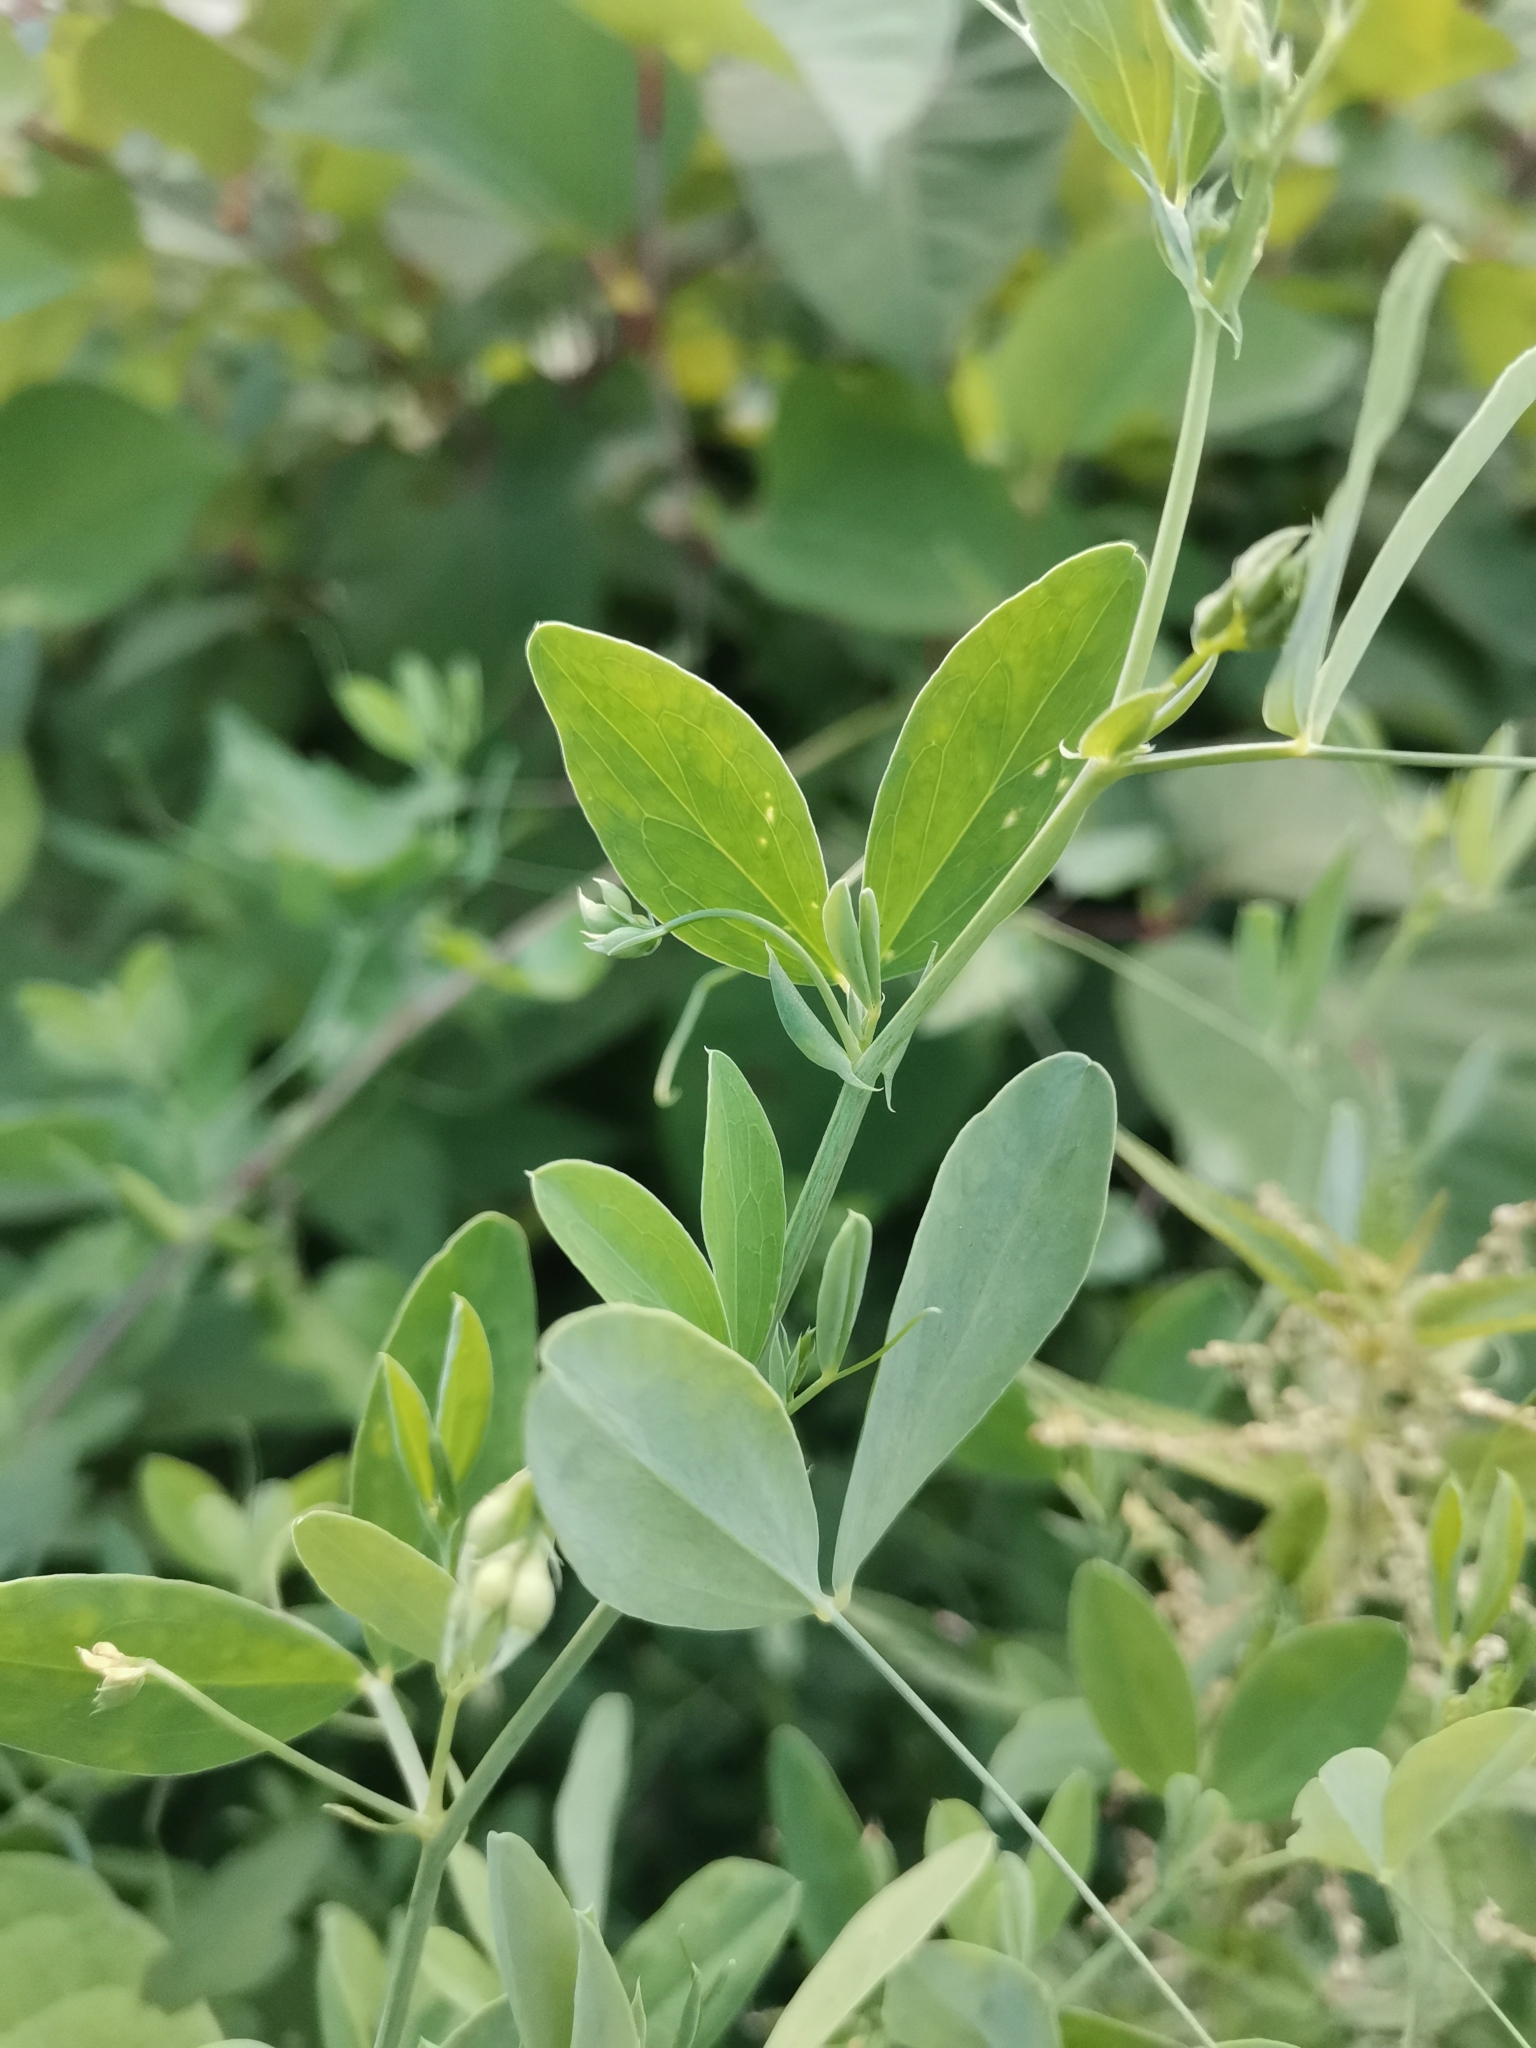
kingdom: Plantae
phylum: Tracheophyta
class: Magnoliopsida
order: Fabales
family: Fabaceae
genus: Lathyrus
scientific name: Lathyrus tuberosus
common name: Tuberous pea
